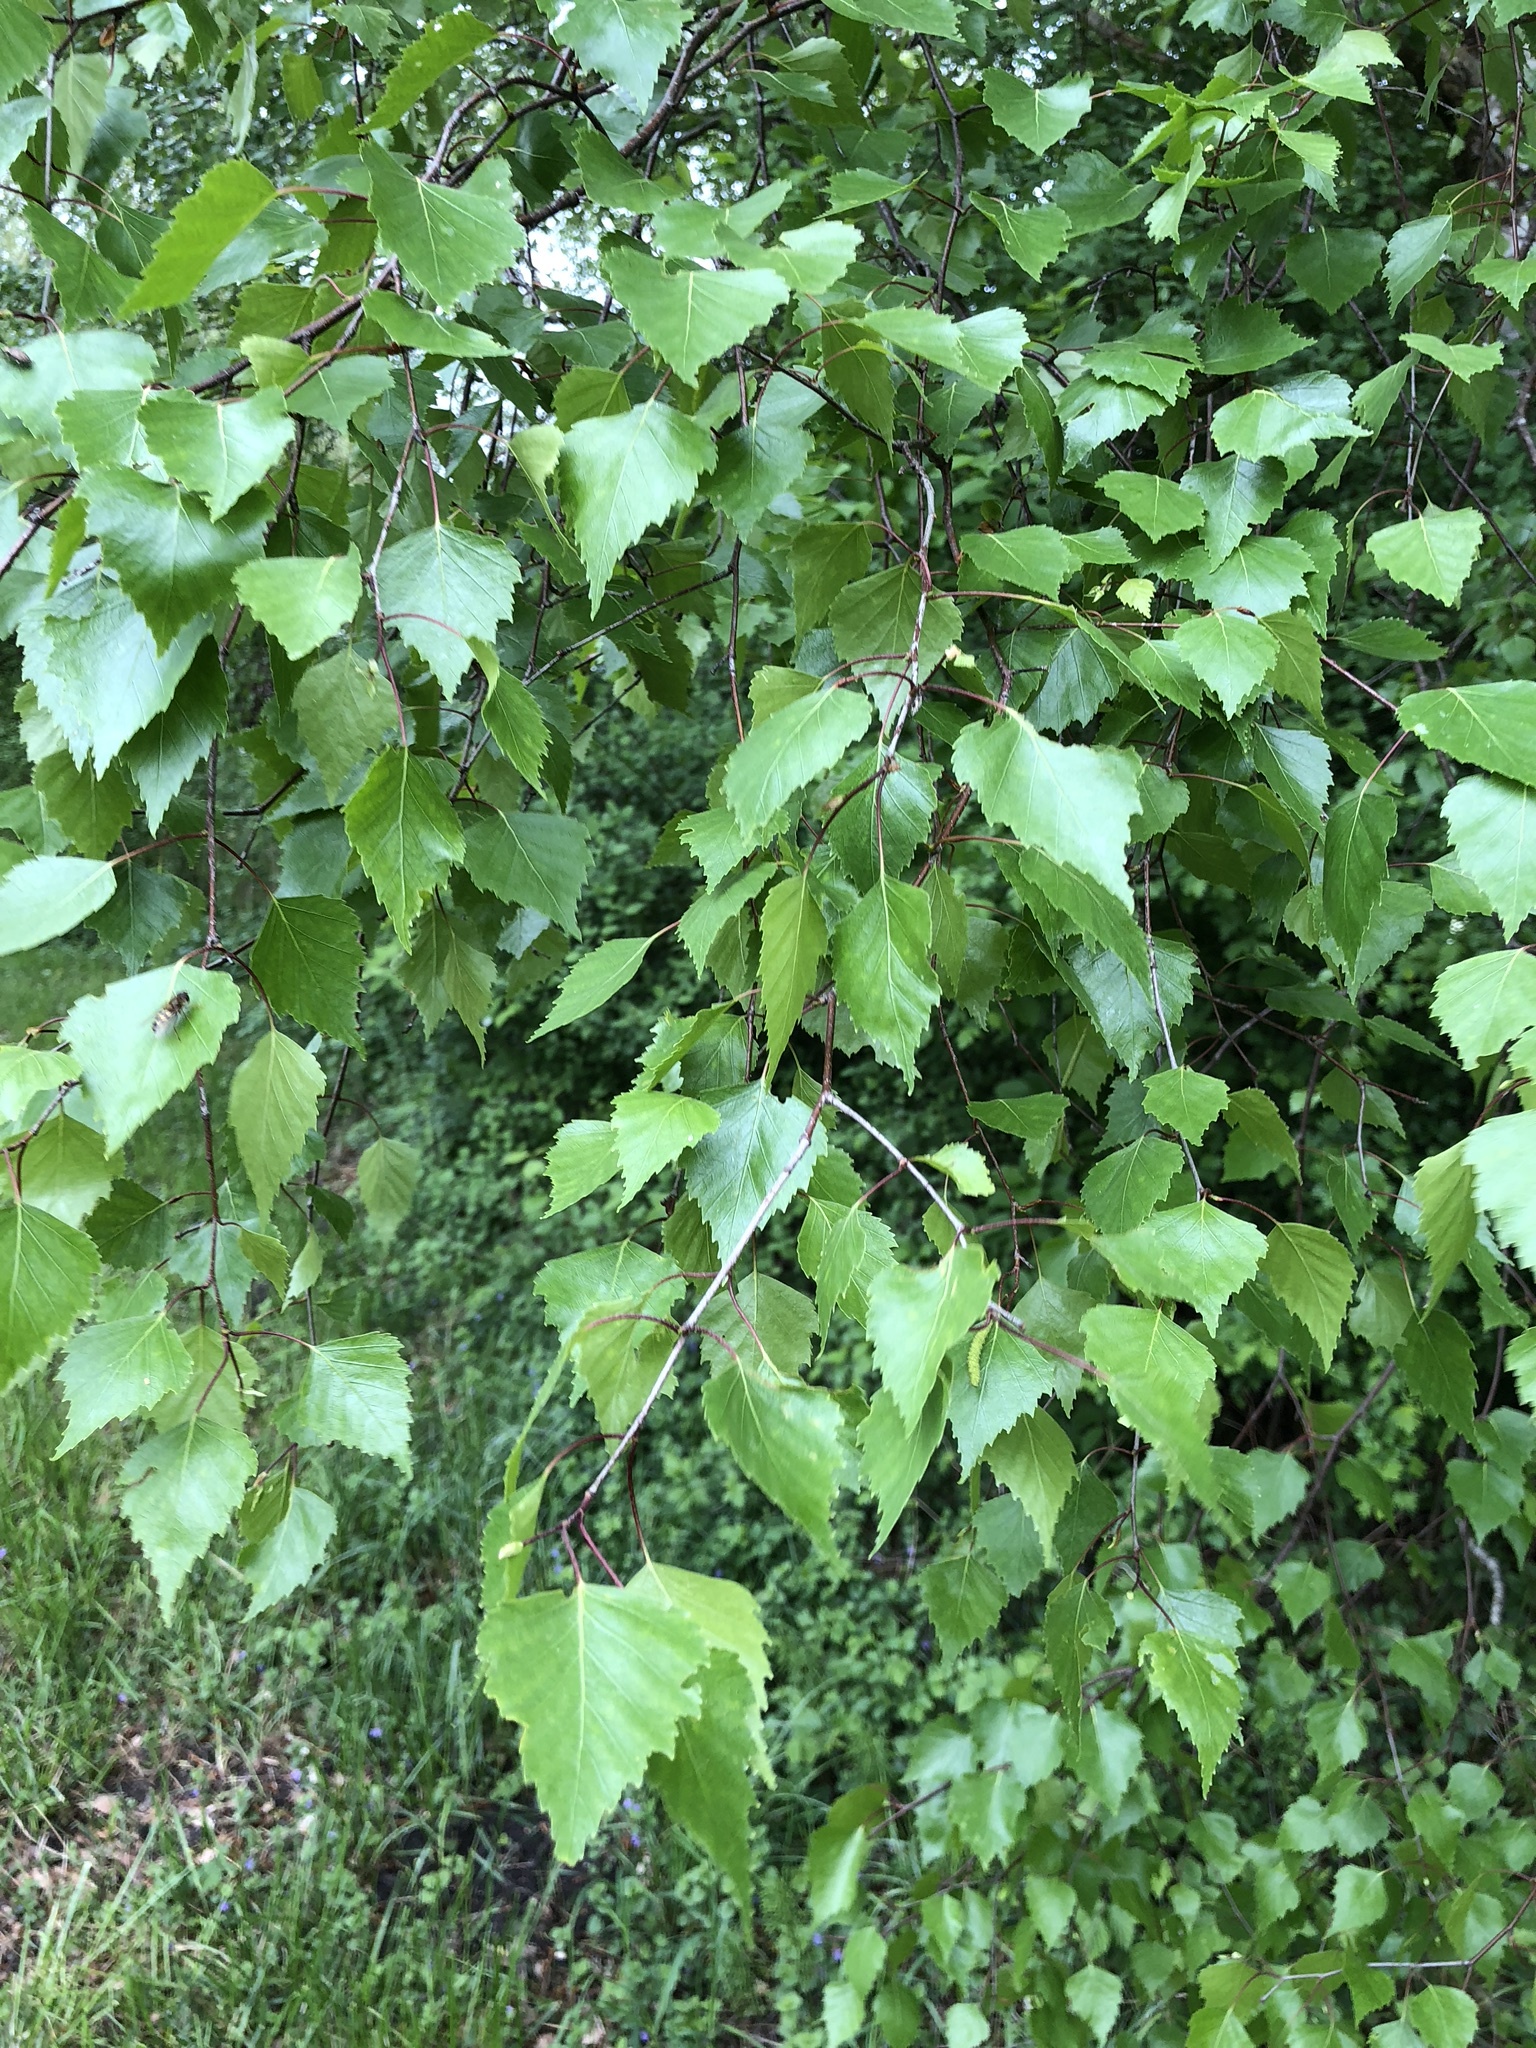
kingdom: Plantae
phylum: Tracheophyta
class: Magnoliopsida
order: Fagales
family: Betulaceae
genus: Betula
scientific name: Betula pendula
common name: Silver birch
